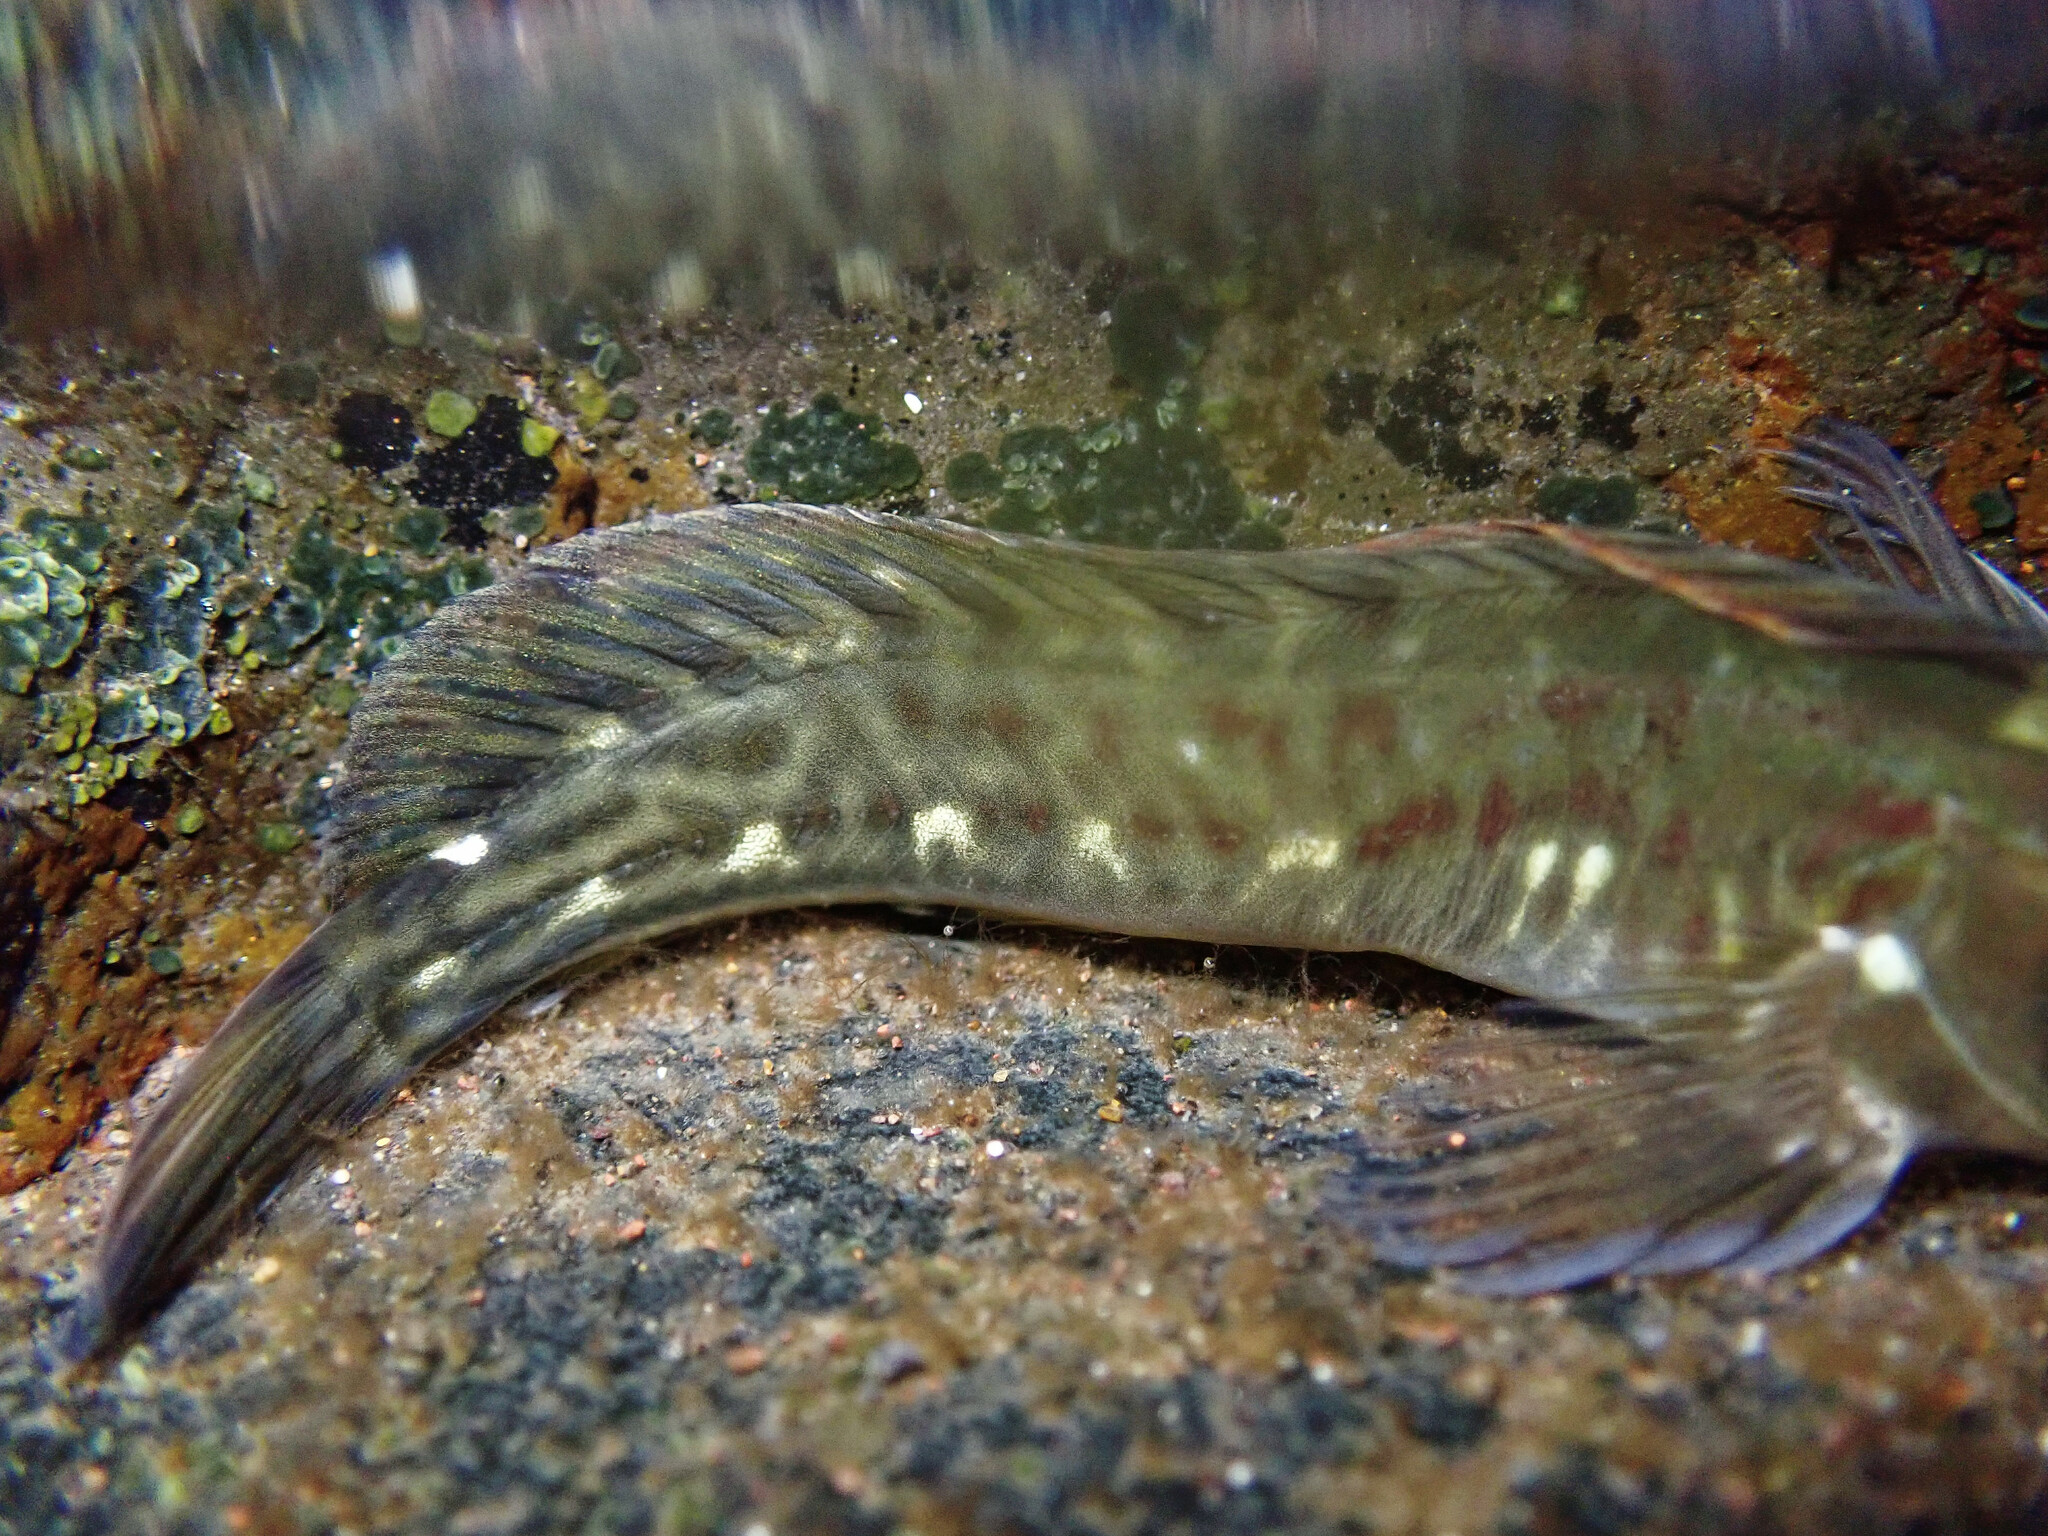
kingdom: Animalia
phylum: Chordata
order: Perciformes
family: Blenniidae
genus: Parablennius
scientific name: Parablennius parvicornis
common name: Rock-pool blenny
